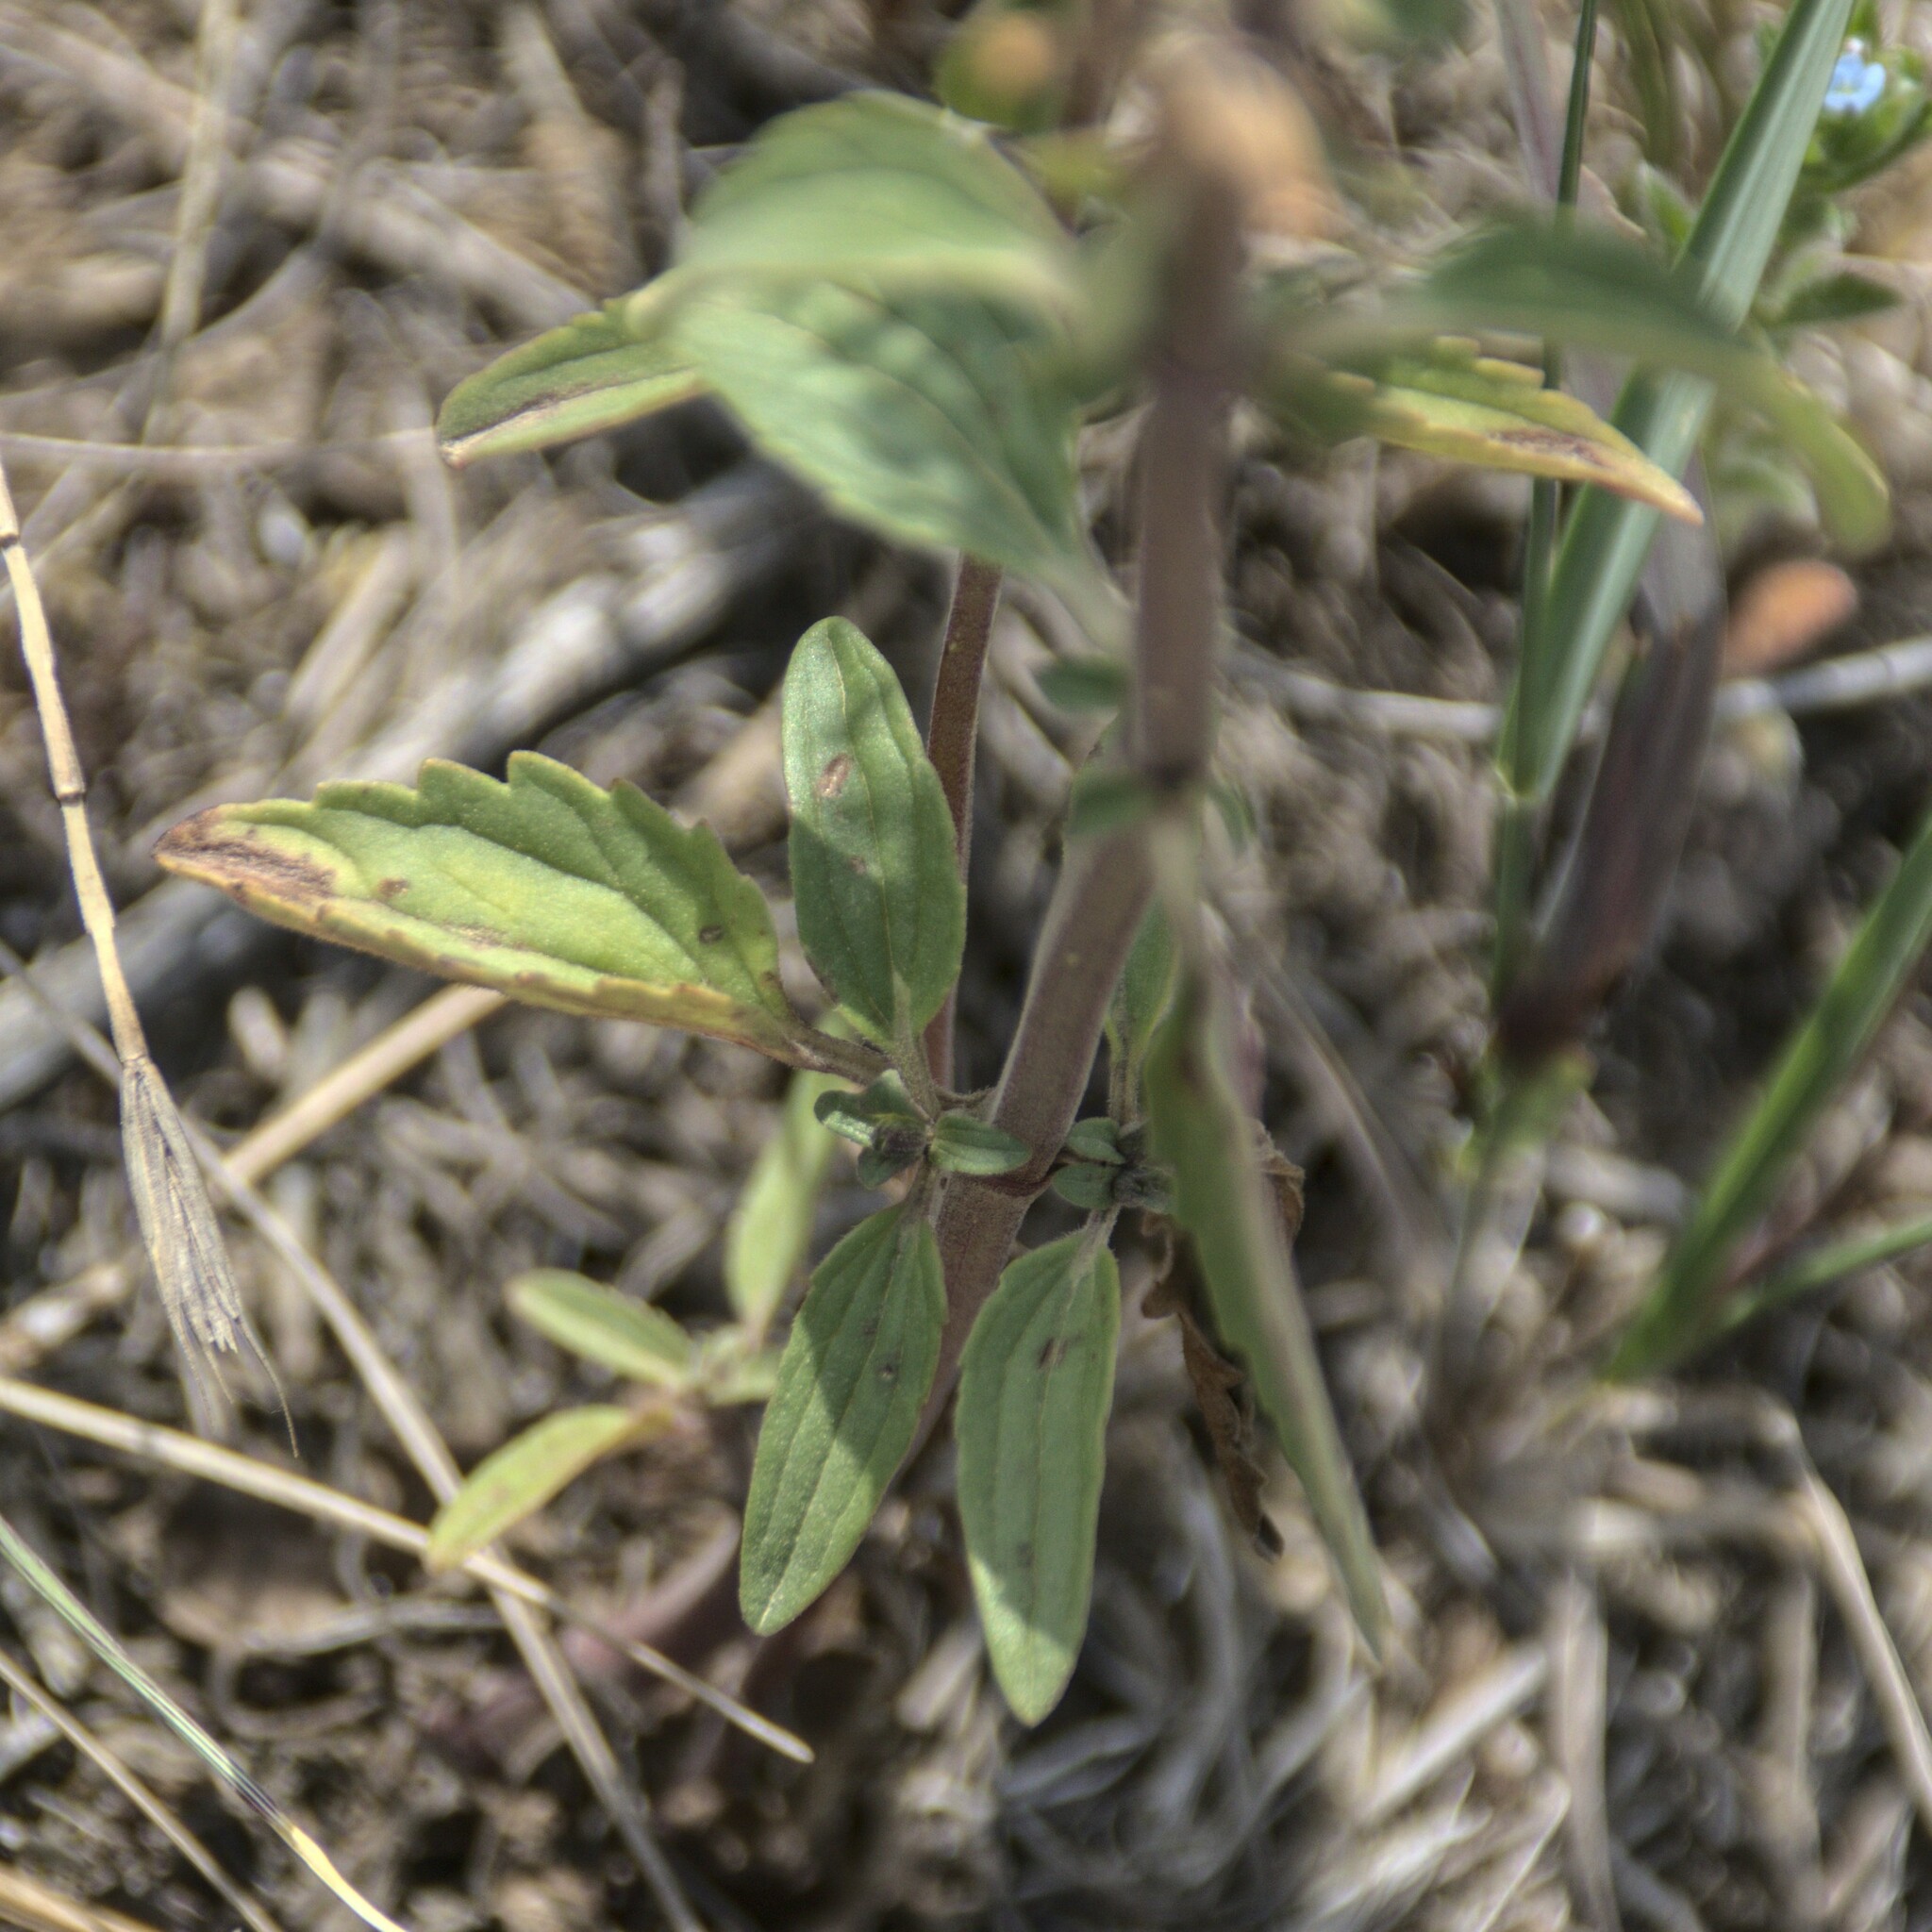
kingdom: Plantae
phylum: Tracheophyta
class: Magnoliopsida
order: Lamiales
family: Lamiaceae
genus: Dracocephalum
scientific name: Dracocephalum thymiflorum
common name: Thymeleaf dragonhead
